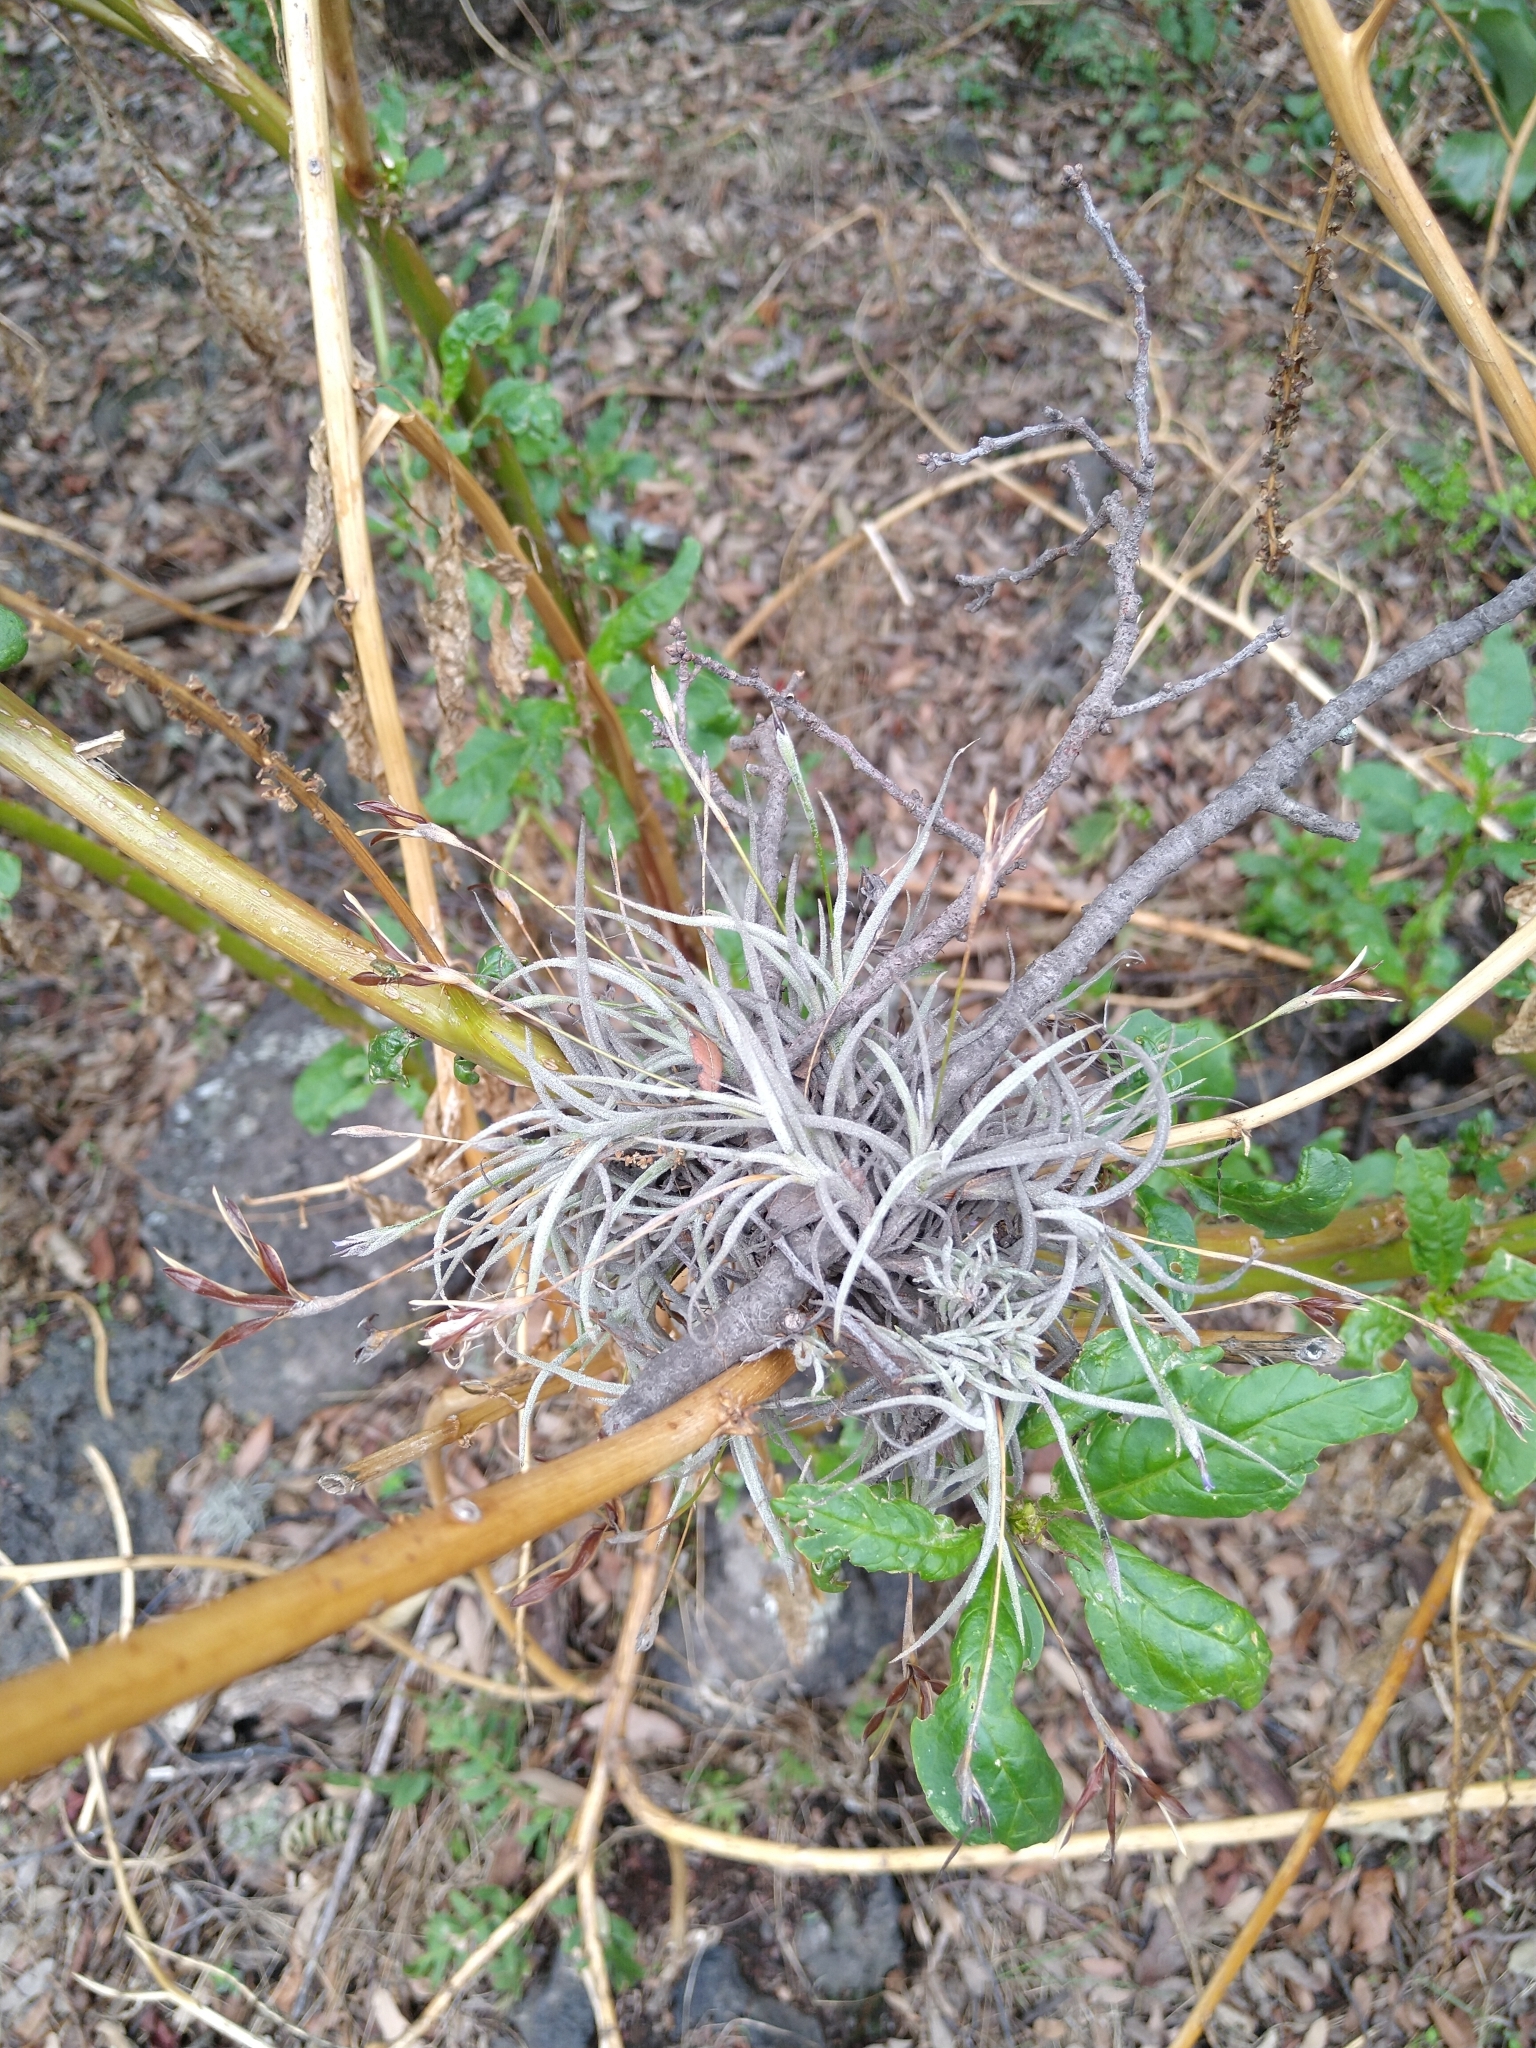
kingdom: Plantae
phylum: Tracheophyta
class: Liliopsida
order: Poales
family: Bromeliaceae
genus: Tillandsia
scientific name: Tillandsia recurvata
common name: Small ballmoss
